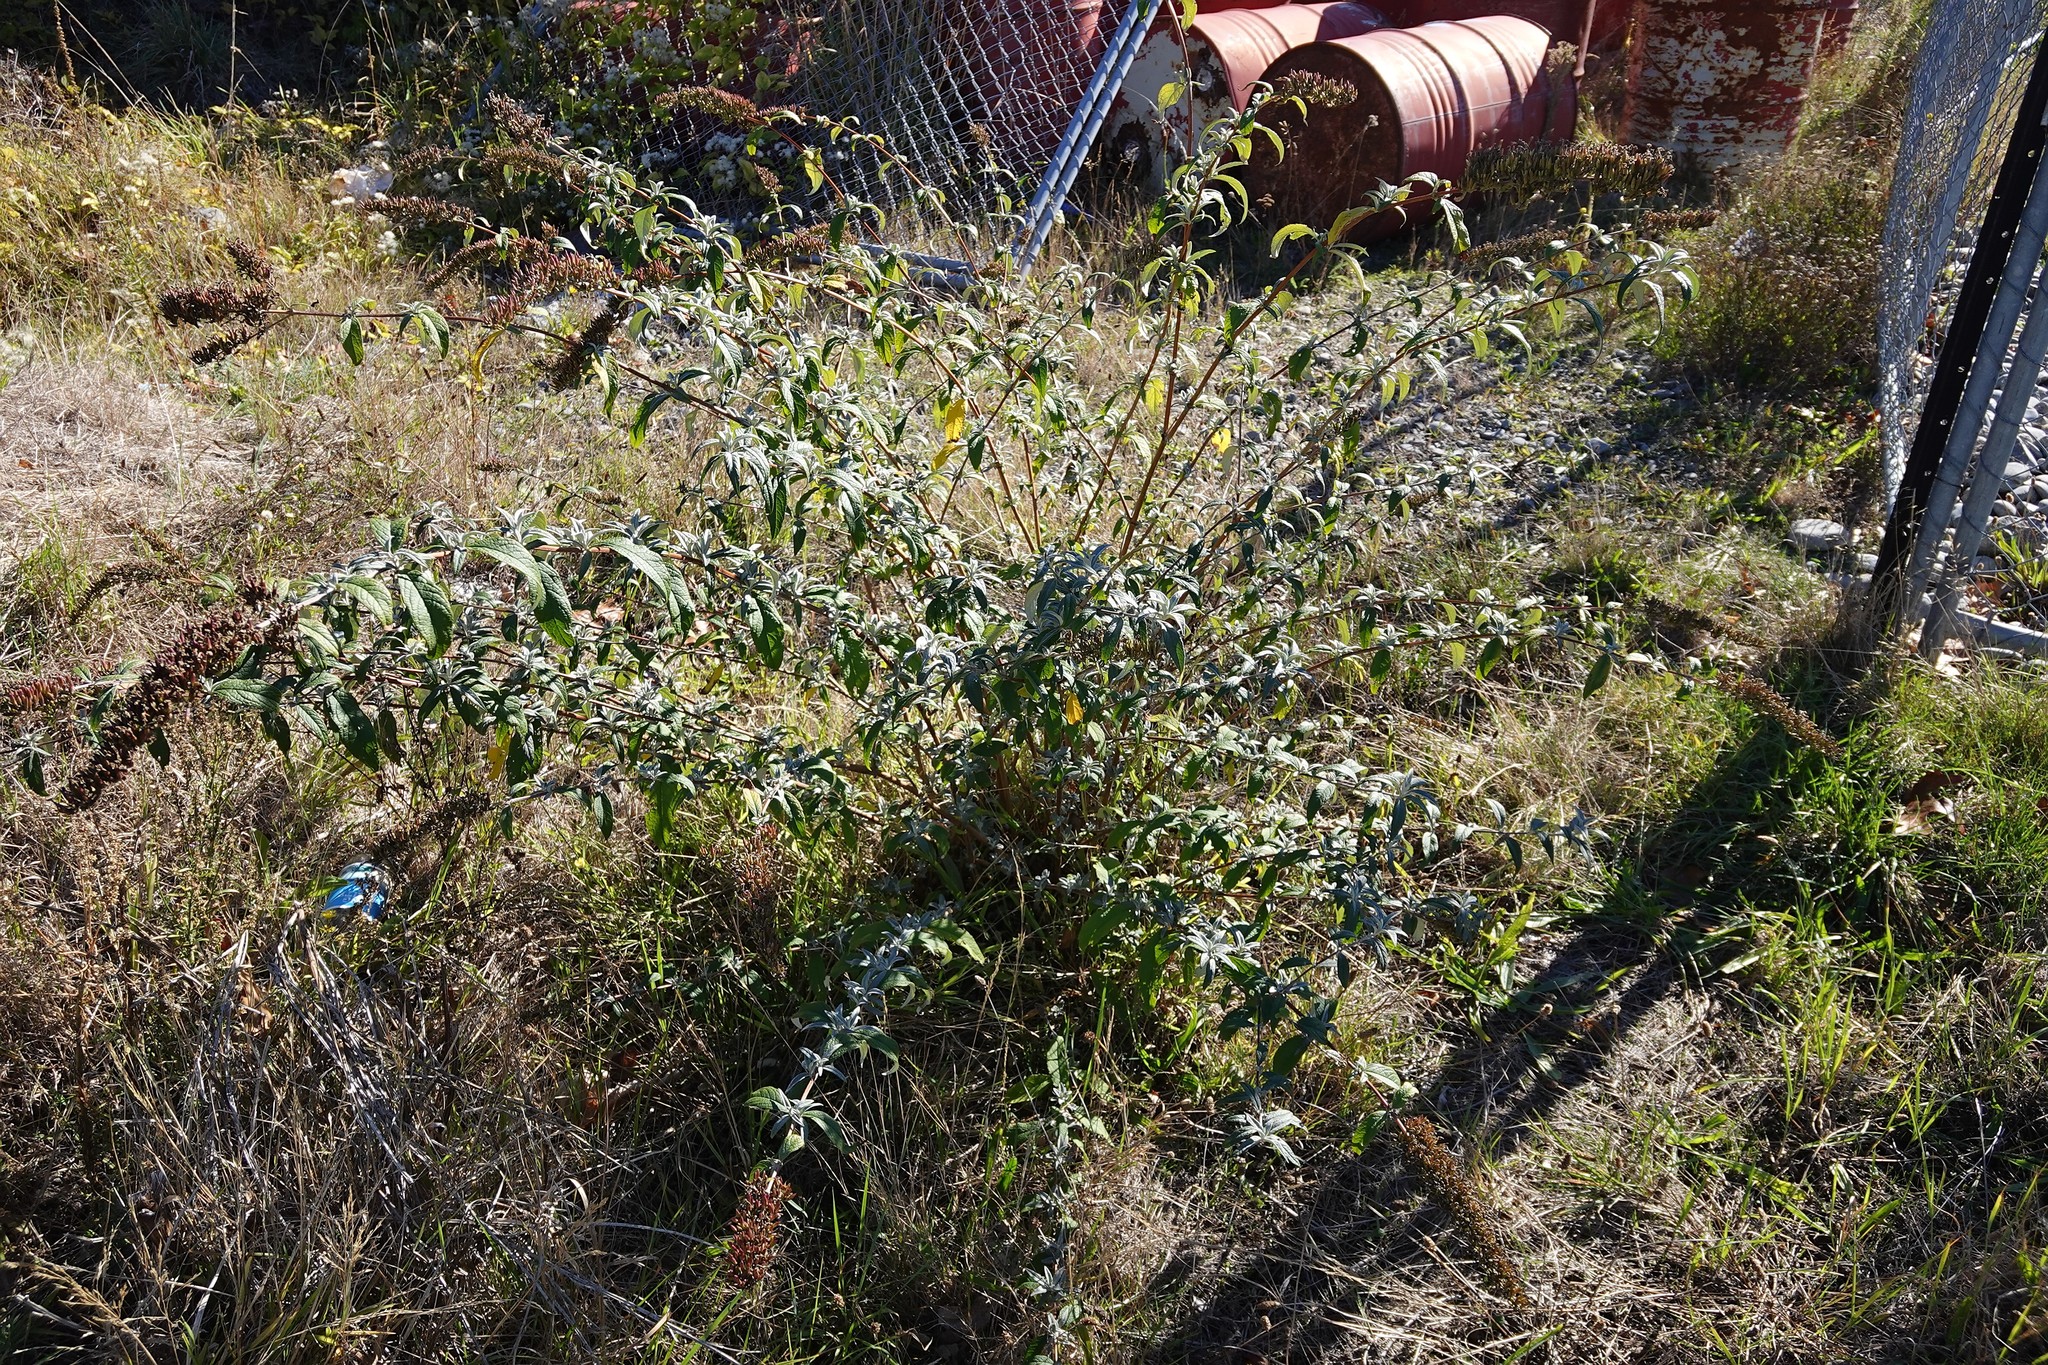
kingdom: Plantae
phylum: Tracheophyta
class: Magnoliopsida
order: Lamiales
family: Scrophulariaceae
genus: Buddleja
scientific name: Buddleja davidii
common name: Butterfly-bush
